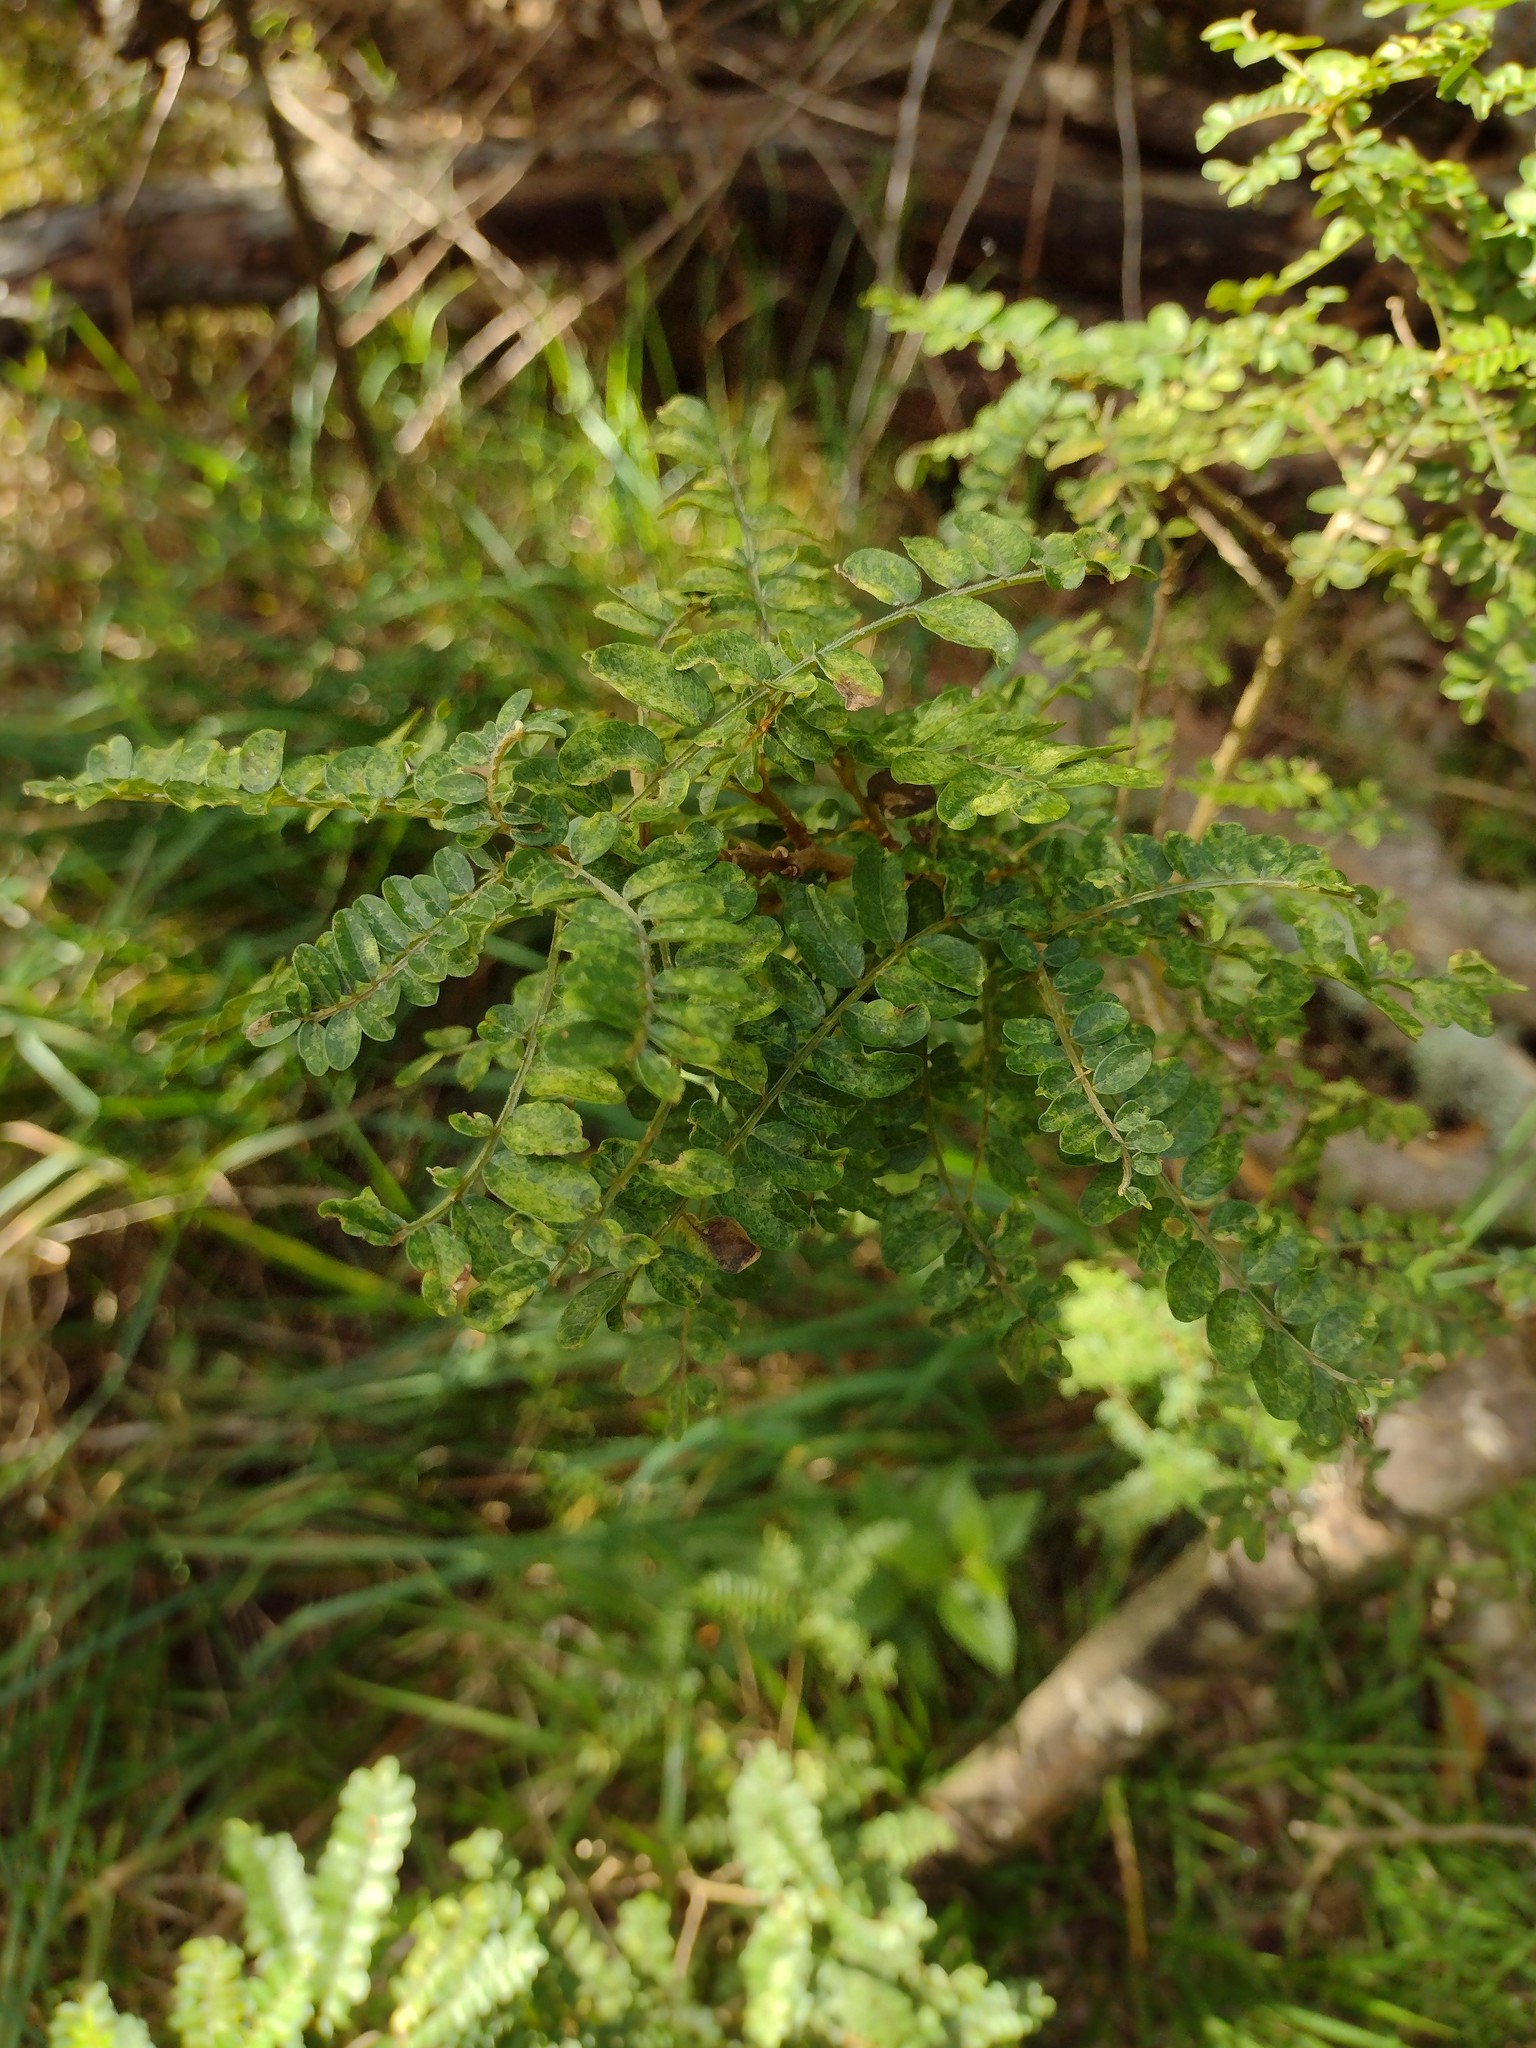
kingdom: Plantae
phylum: Tracheophyta
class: Magnoliopsida
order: Fabales
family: Fabaceae
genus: Sophora
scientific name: Sophora chrysophylla
